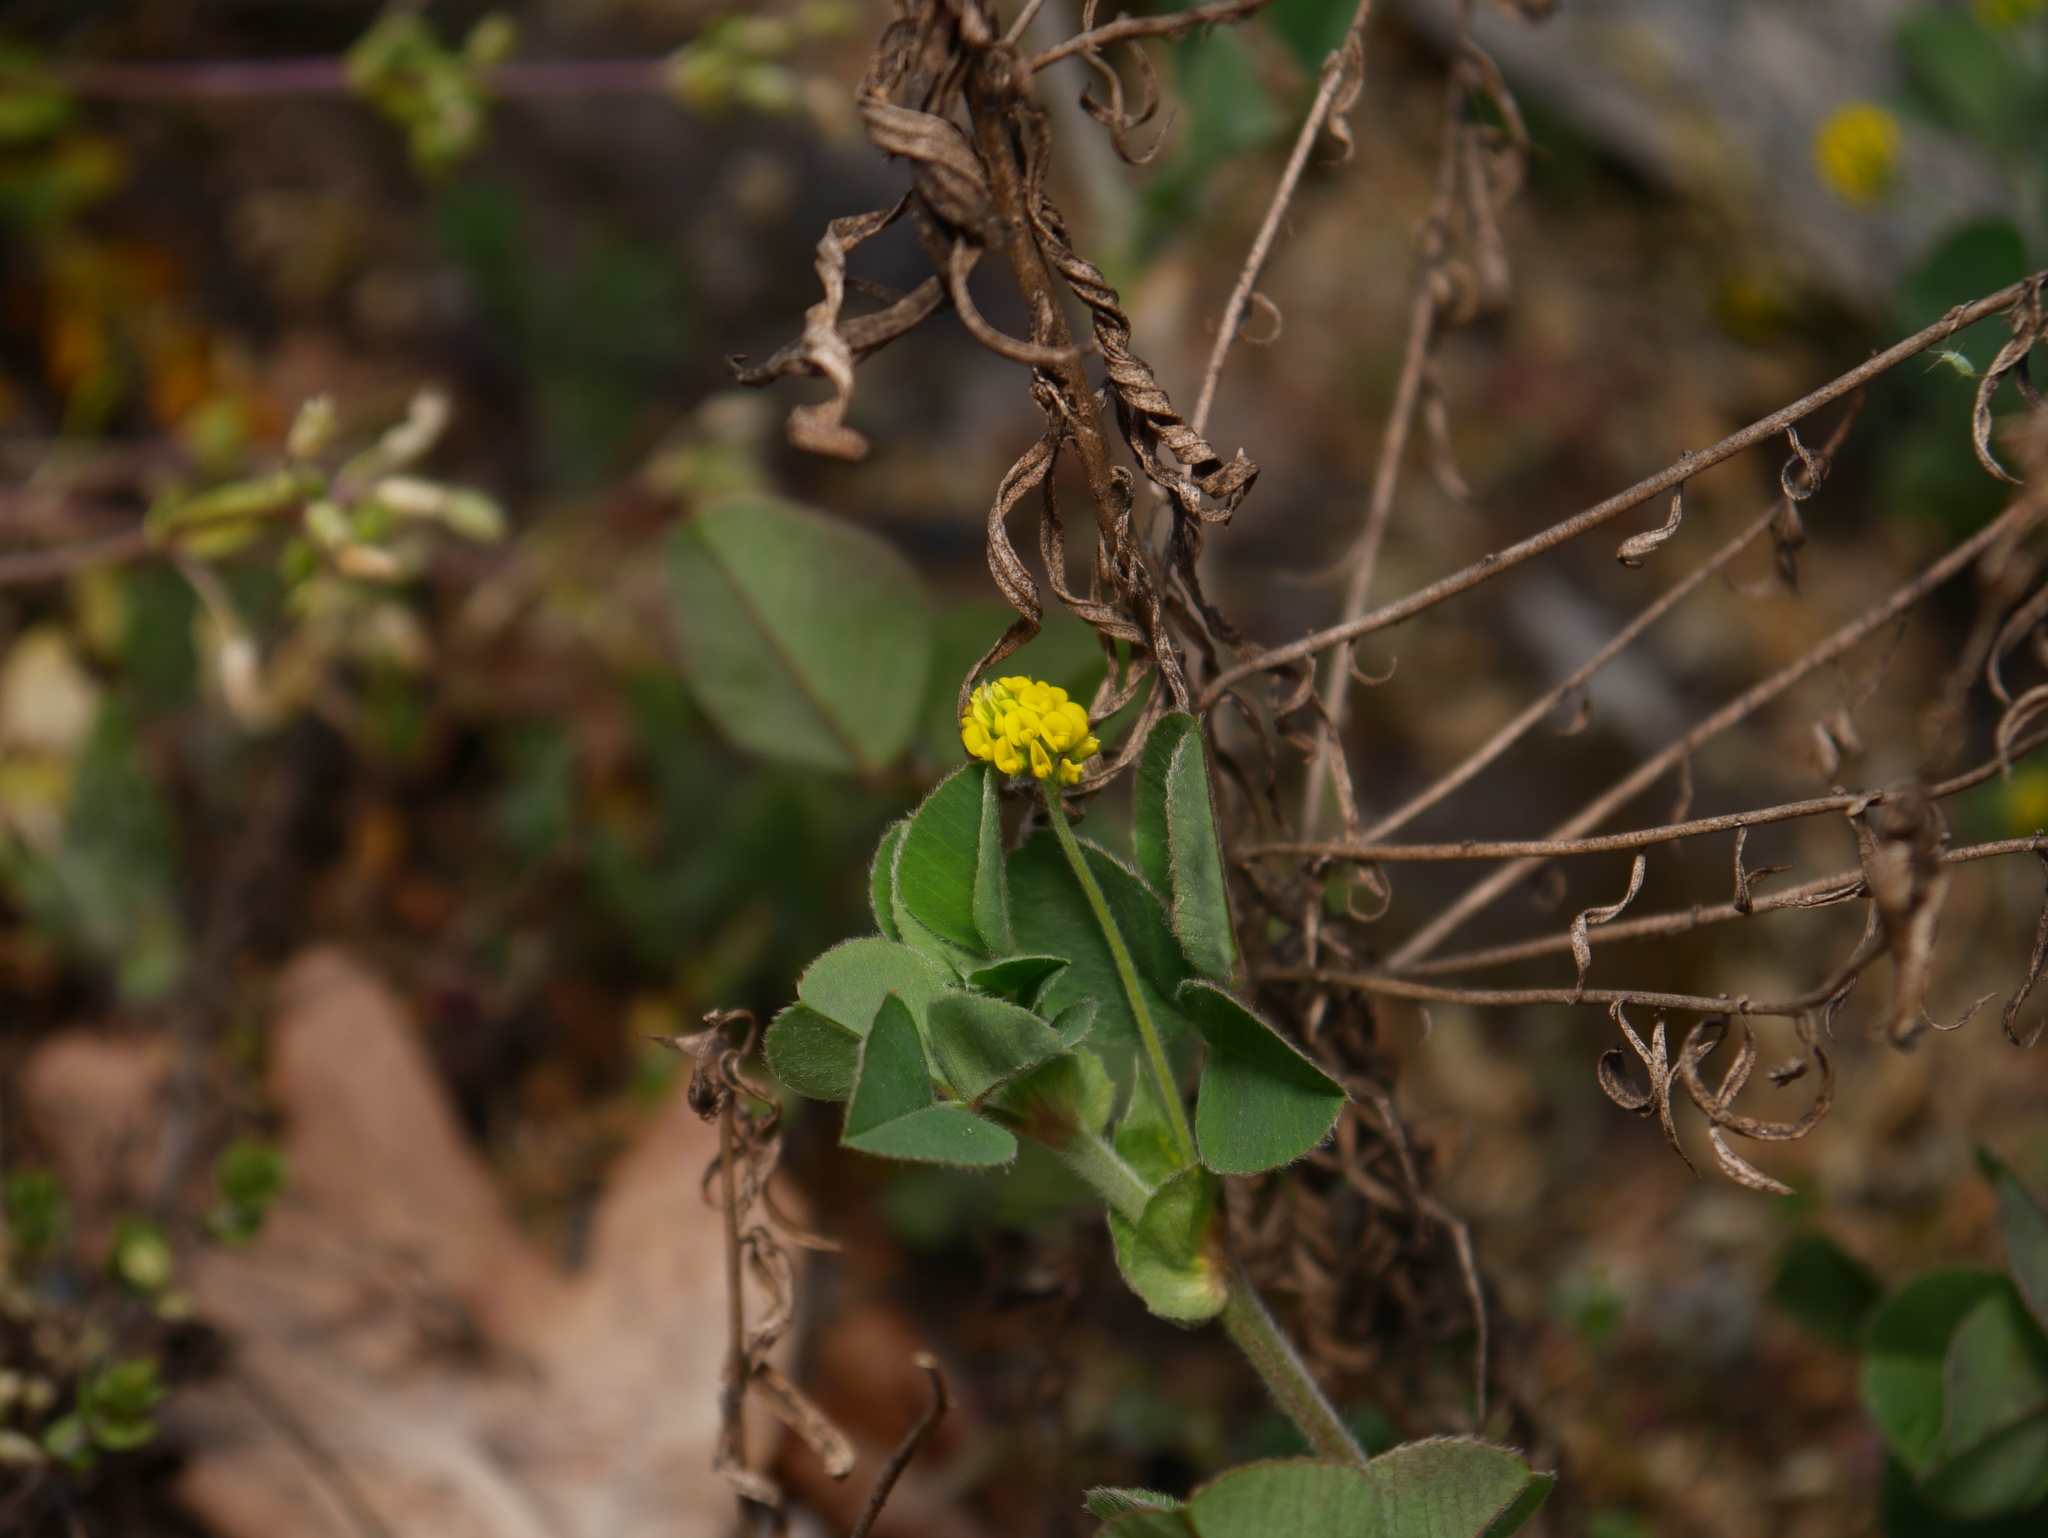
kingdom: Plantae
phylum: Tracheophyta
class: Magnoliopsida
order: Fabales
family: Fabaceae
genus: Medicago
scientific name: Medicago lupulina
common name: Black medick
